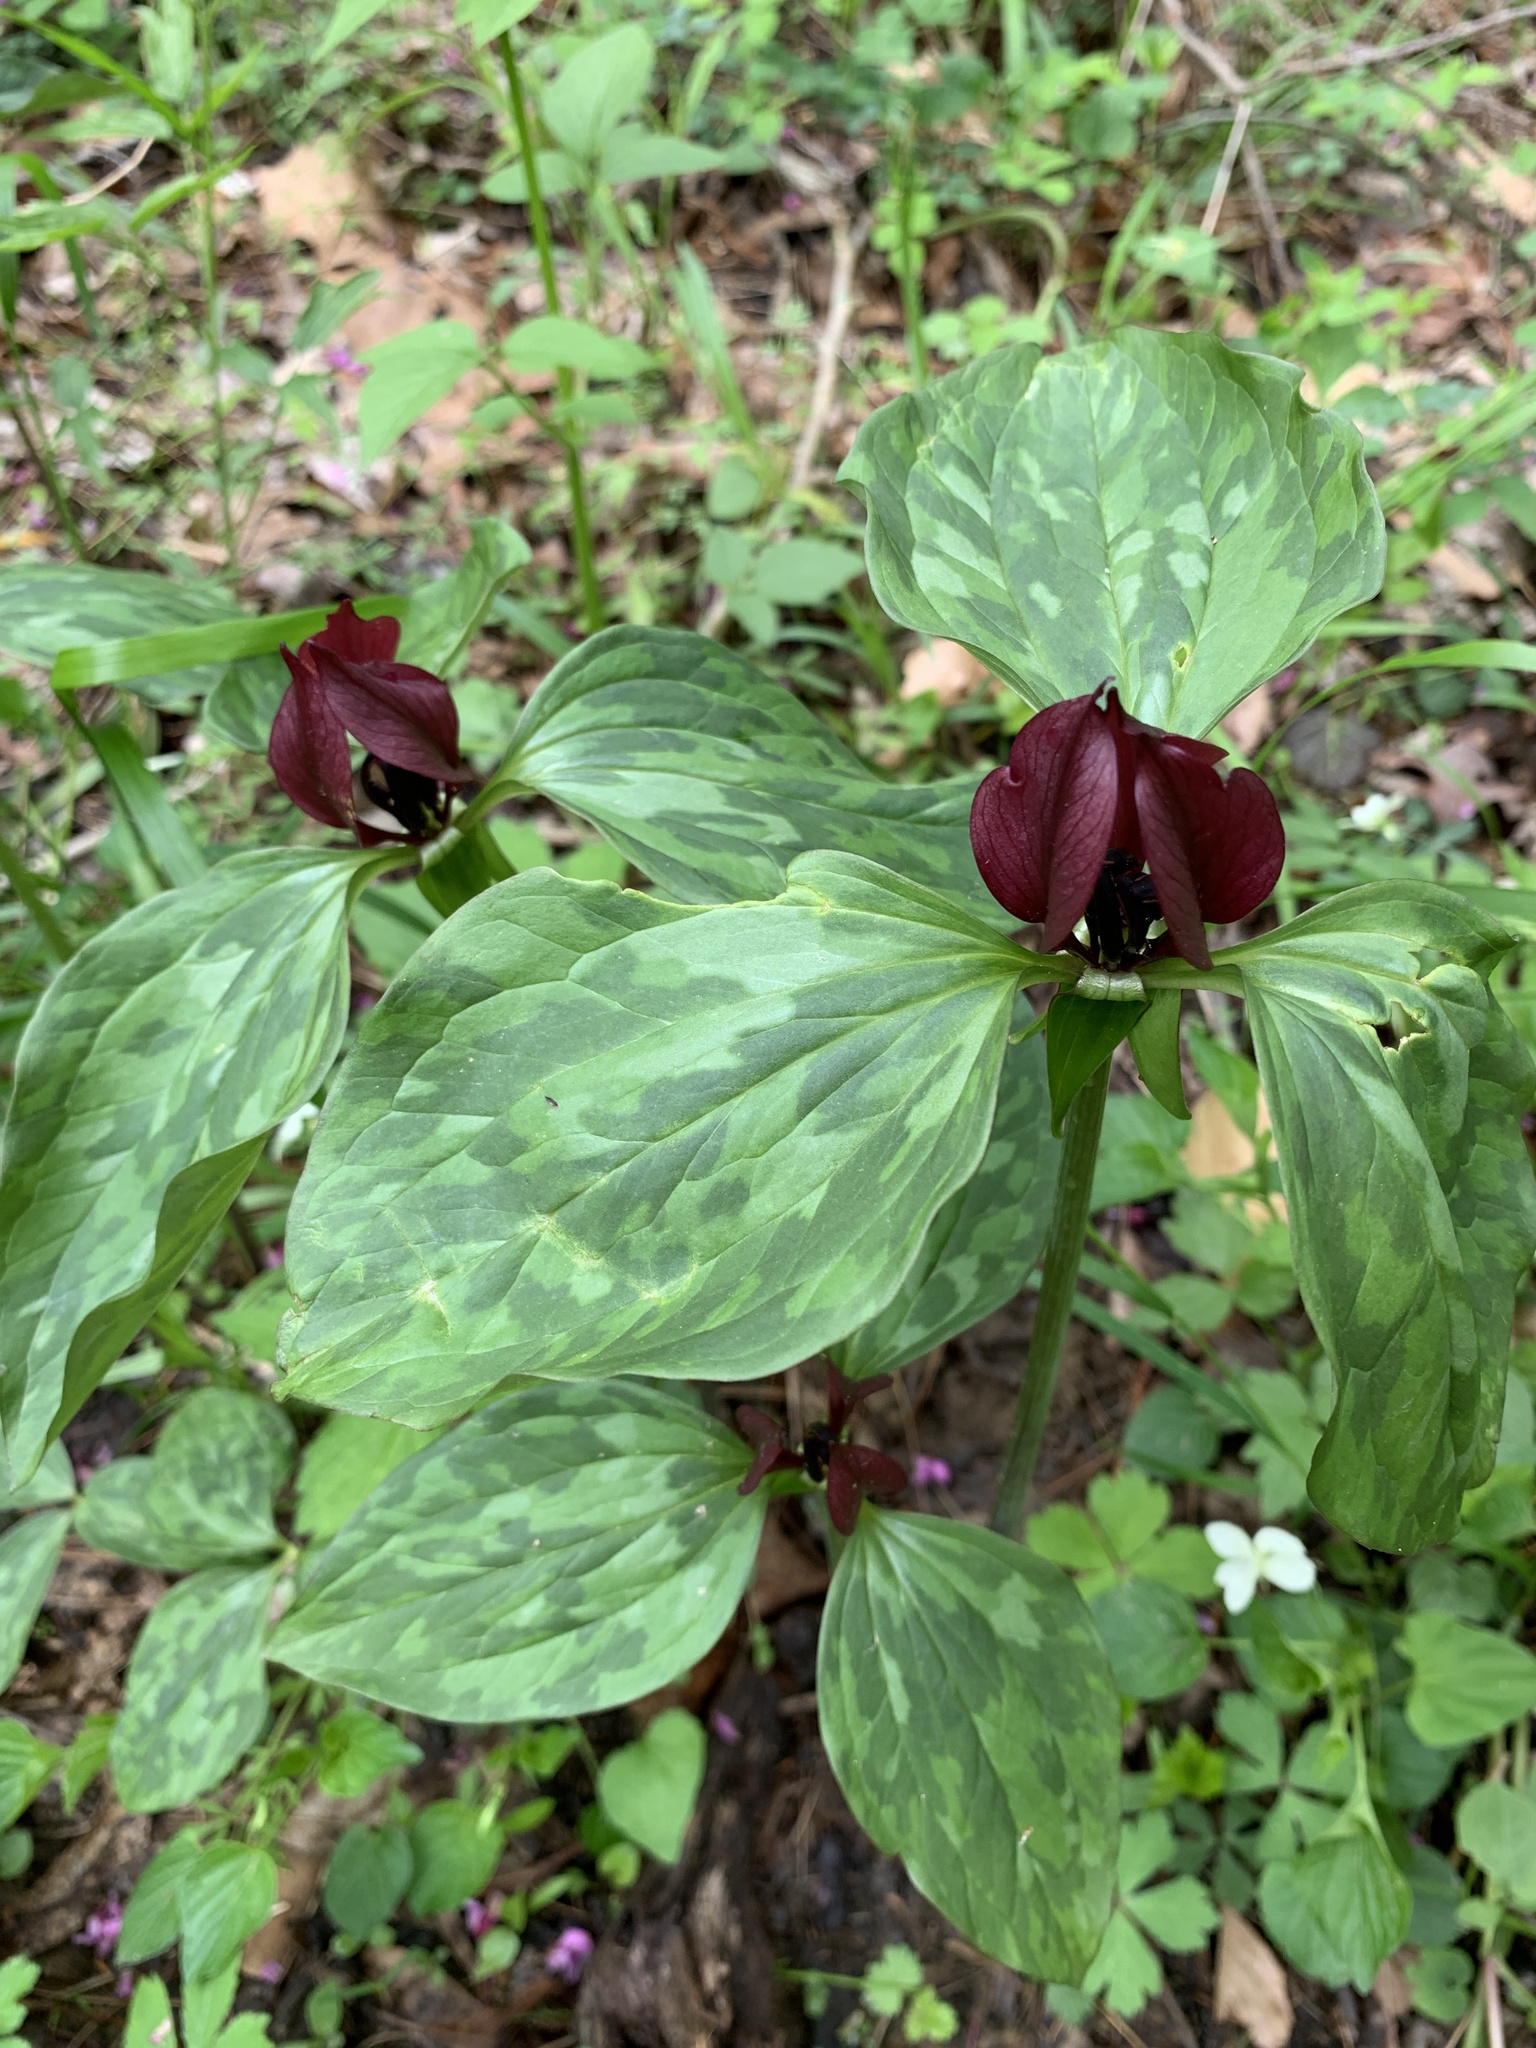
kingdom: Plantae
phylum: Tracheophyta
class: Liliopsida
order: Liliales
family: Melanthiaceae
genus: Trillium
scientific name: Trillium recurvatum
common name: Bloody butcher
